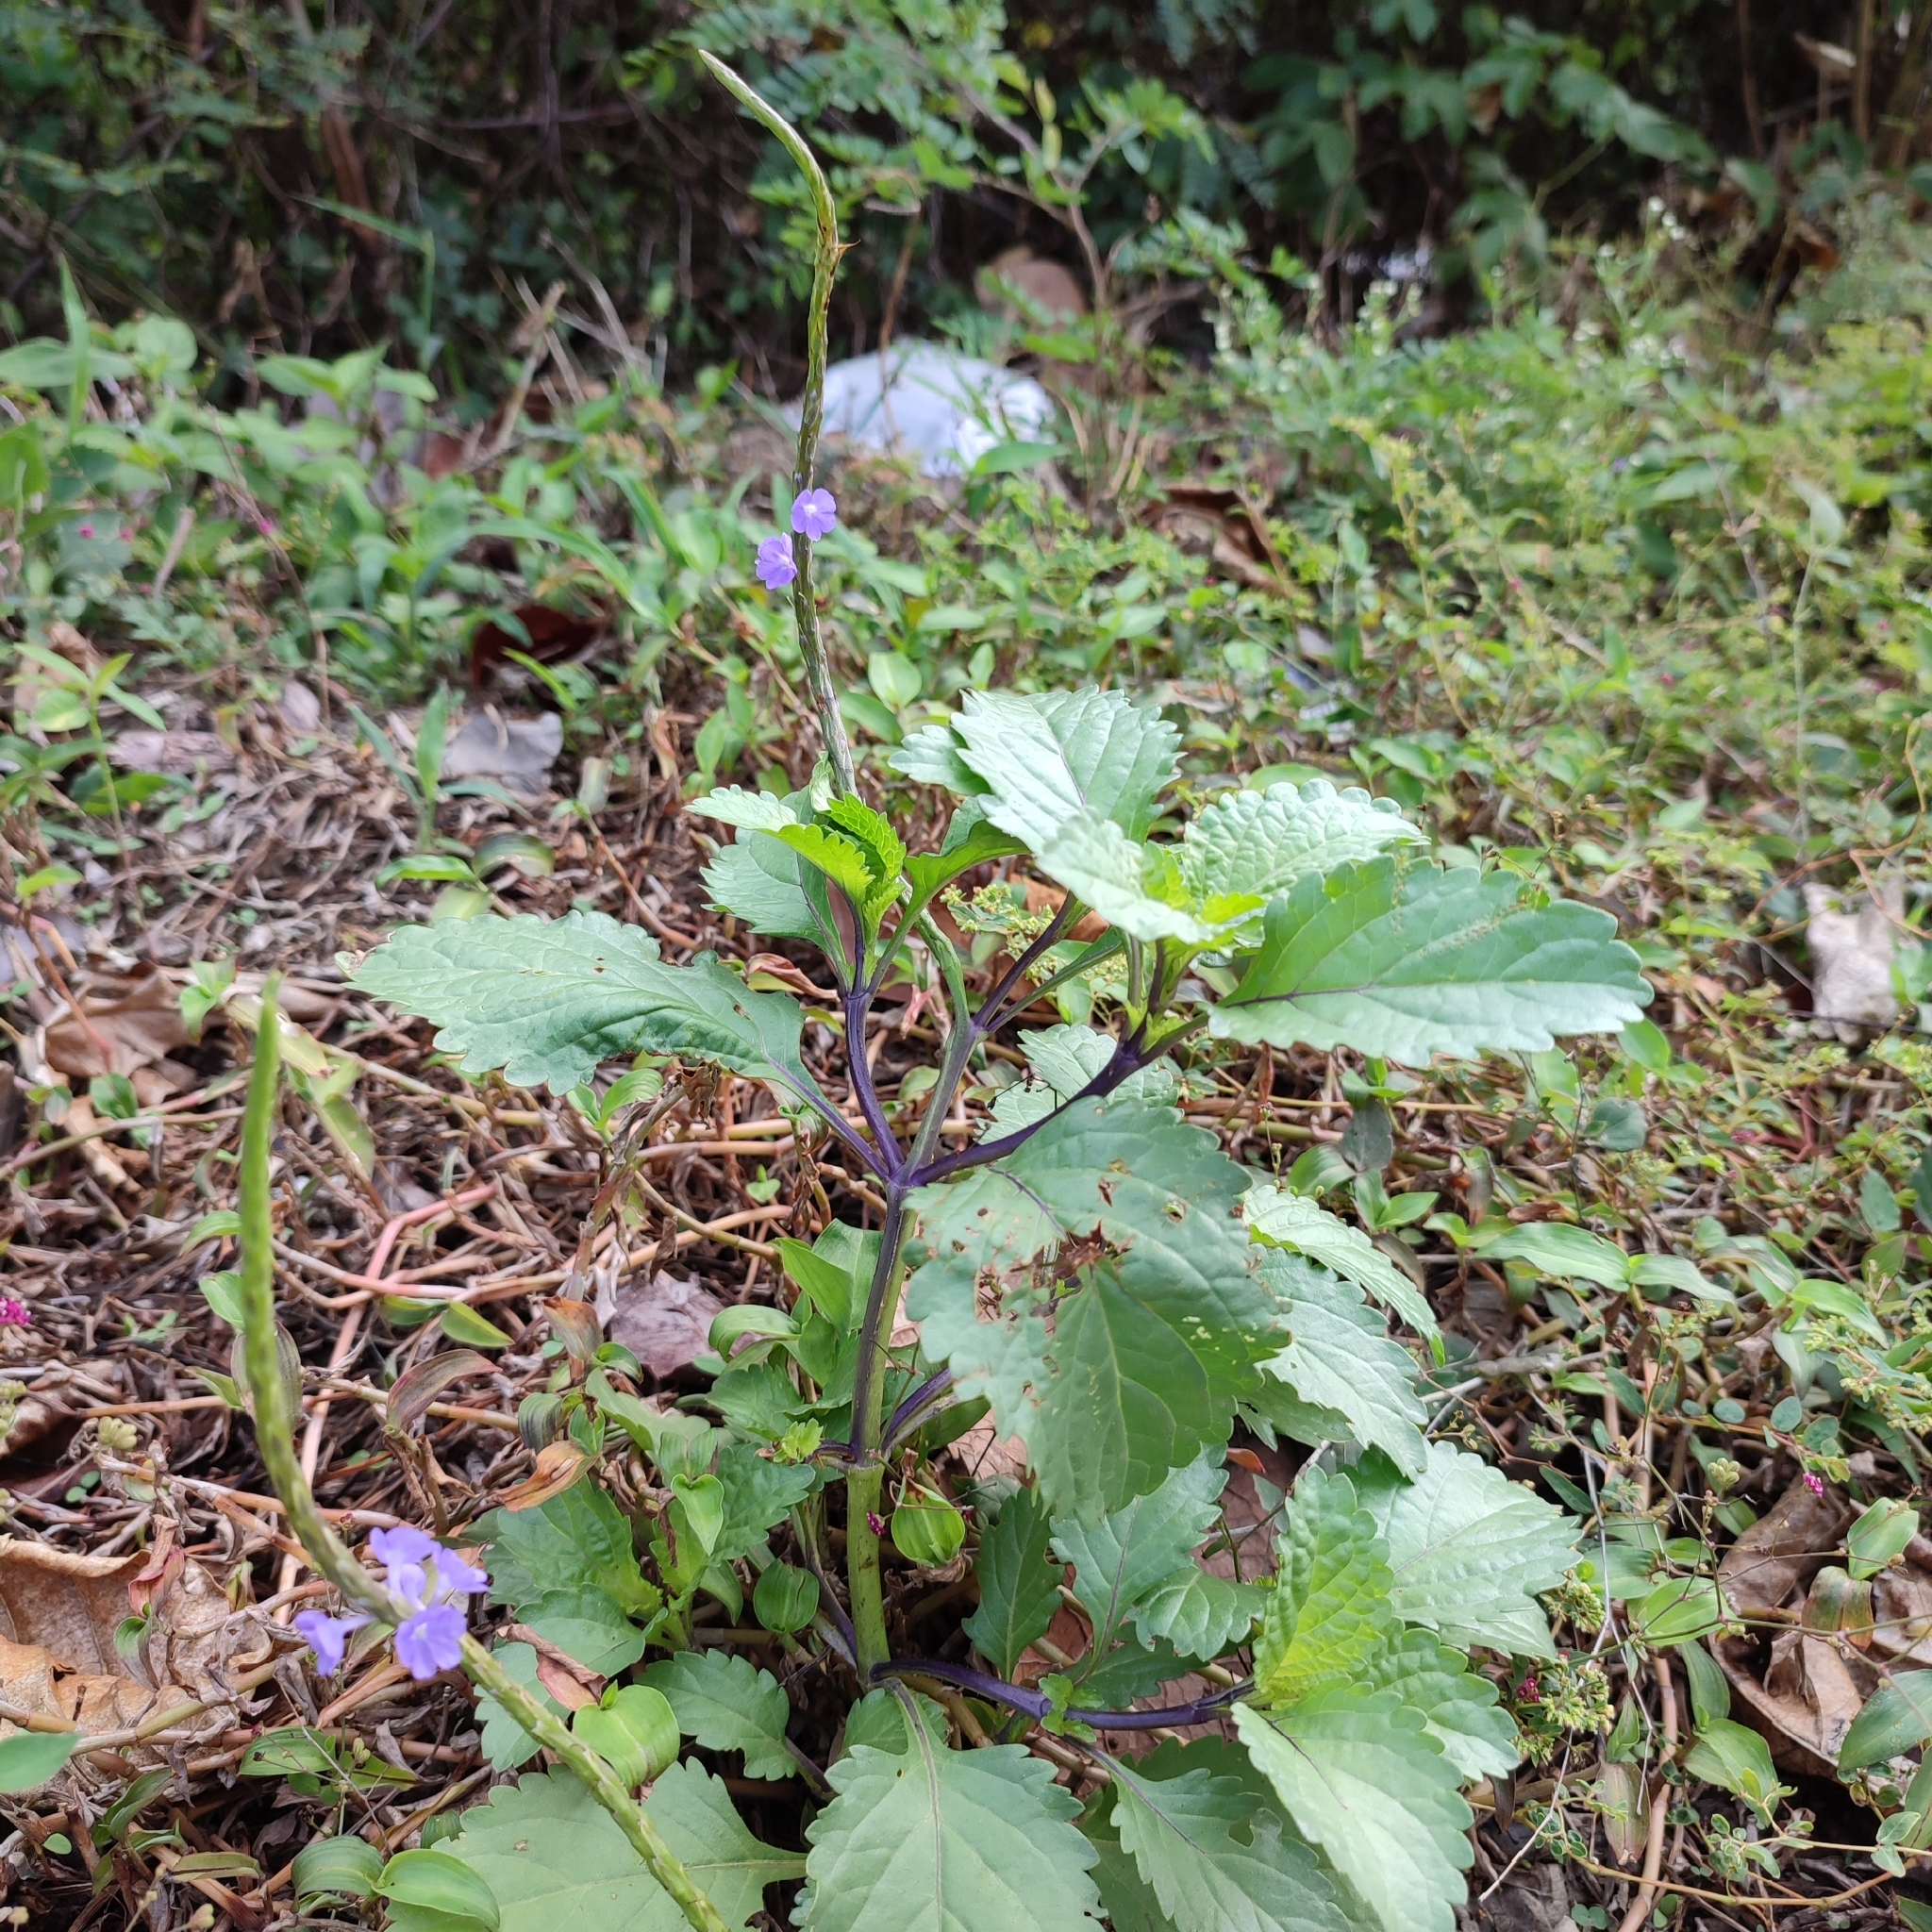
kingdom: Plantae
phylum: Tracheophyta
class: Magnoliopsida
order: Lamiales
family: Verbenaceae
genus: Stachytarpheta
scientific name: Stachytarpheta jamaicensis
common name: Light-blue snakeweed
